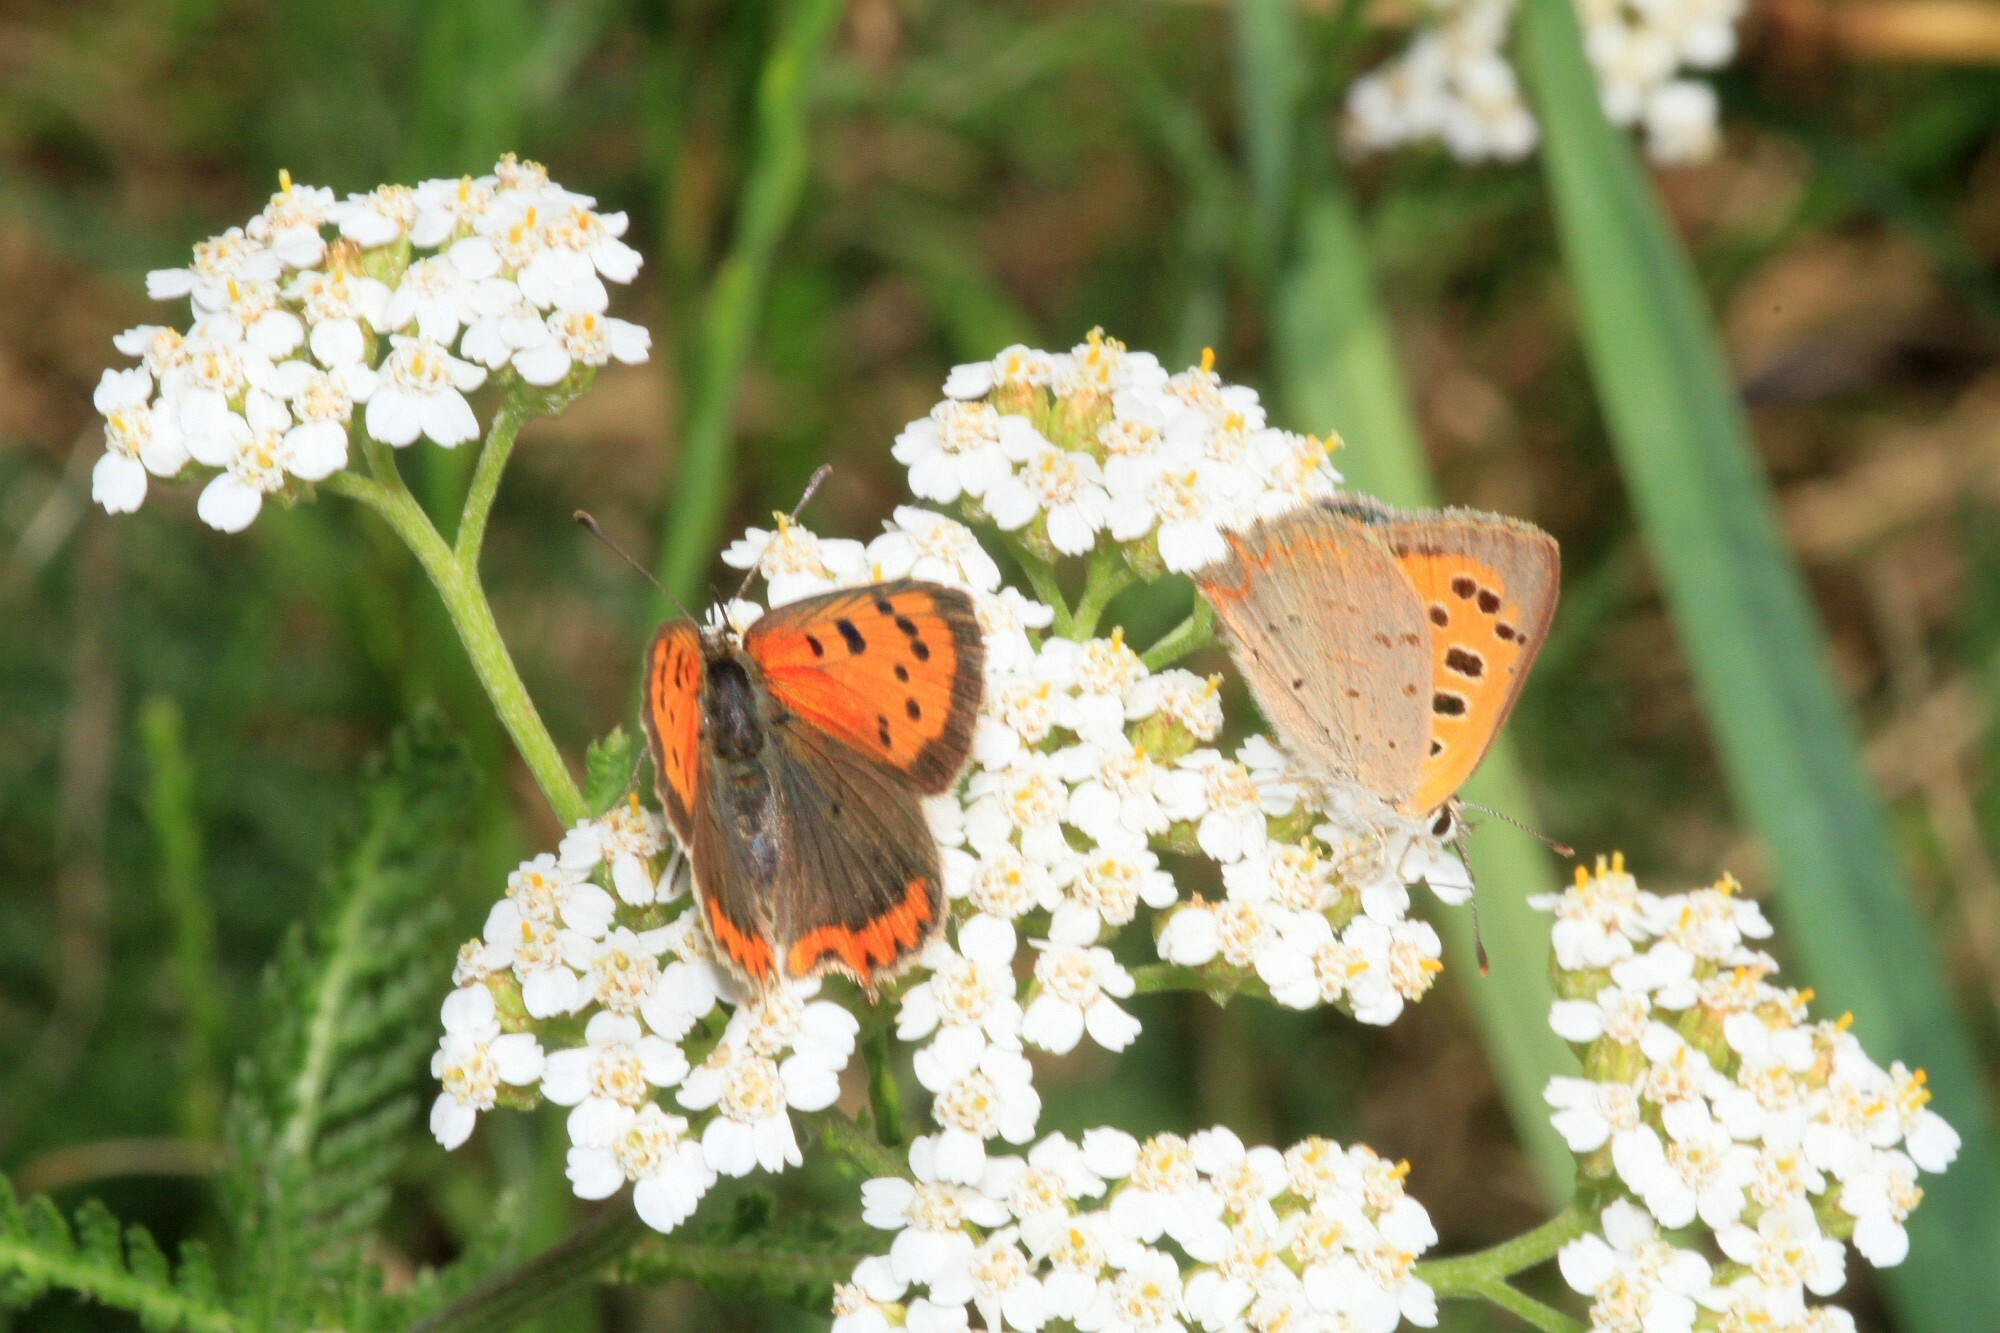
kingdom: Animalia
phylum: Arthropoda
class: Insecta
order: Lepidoptera
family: Lycaenidae
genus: Lycaena
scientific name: Lycaena phlaeas
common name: Small copper
